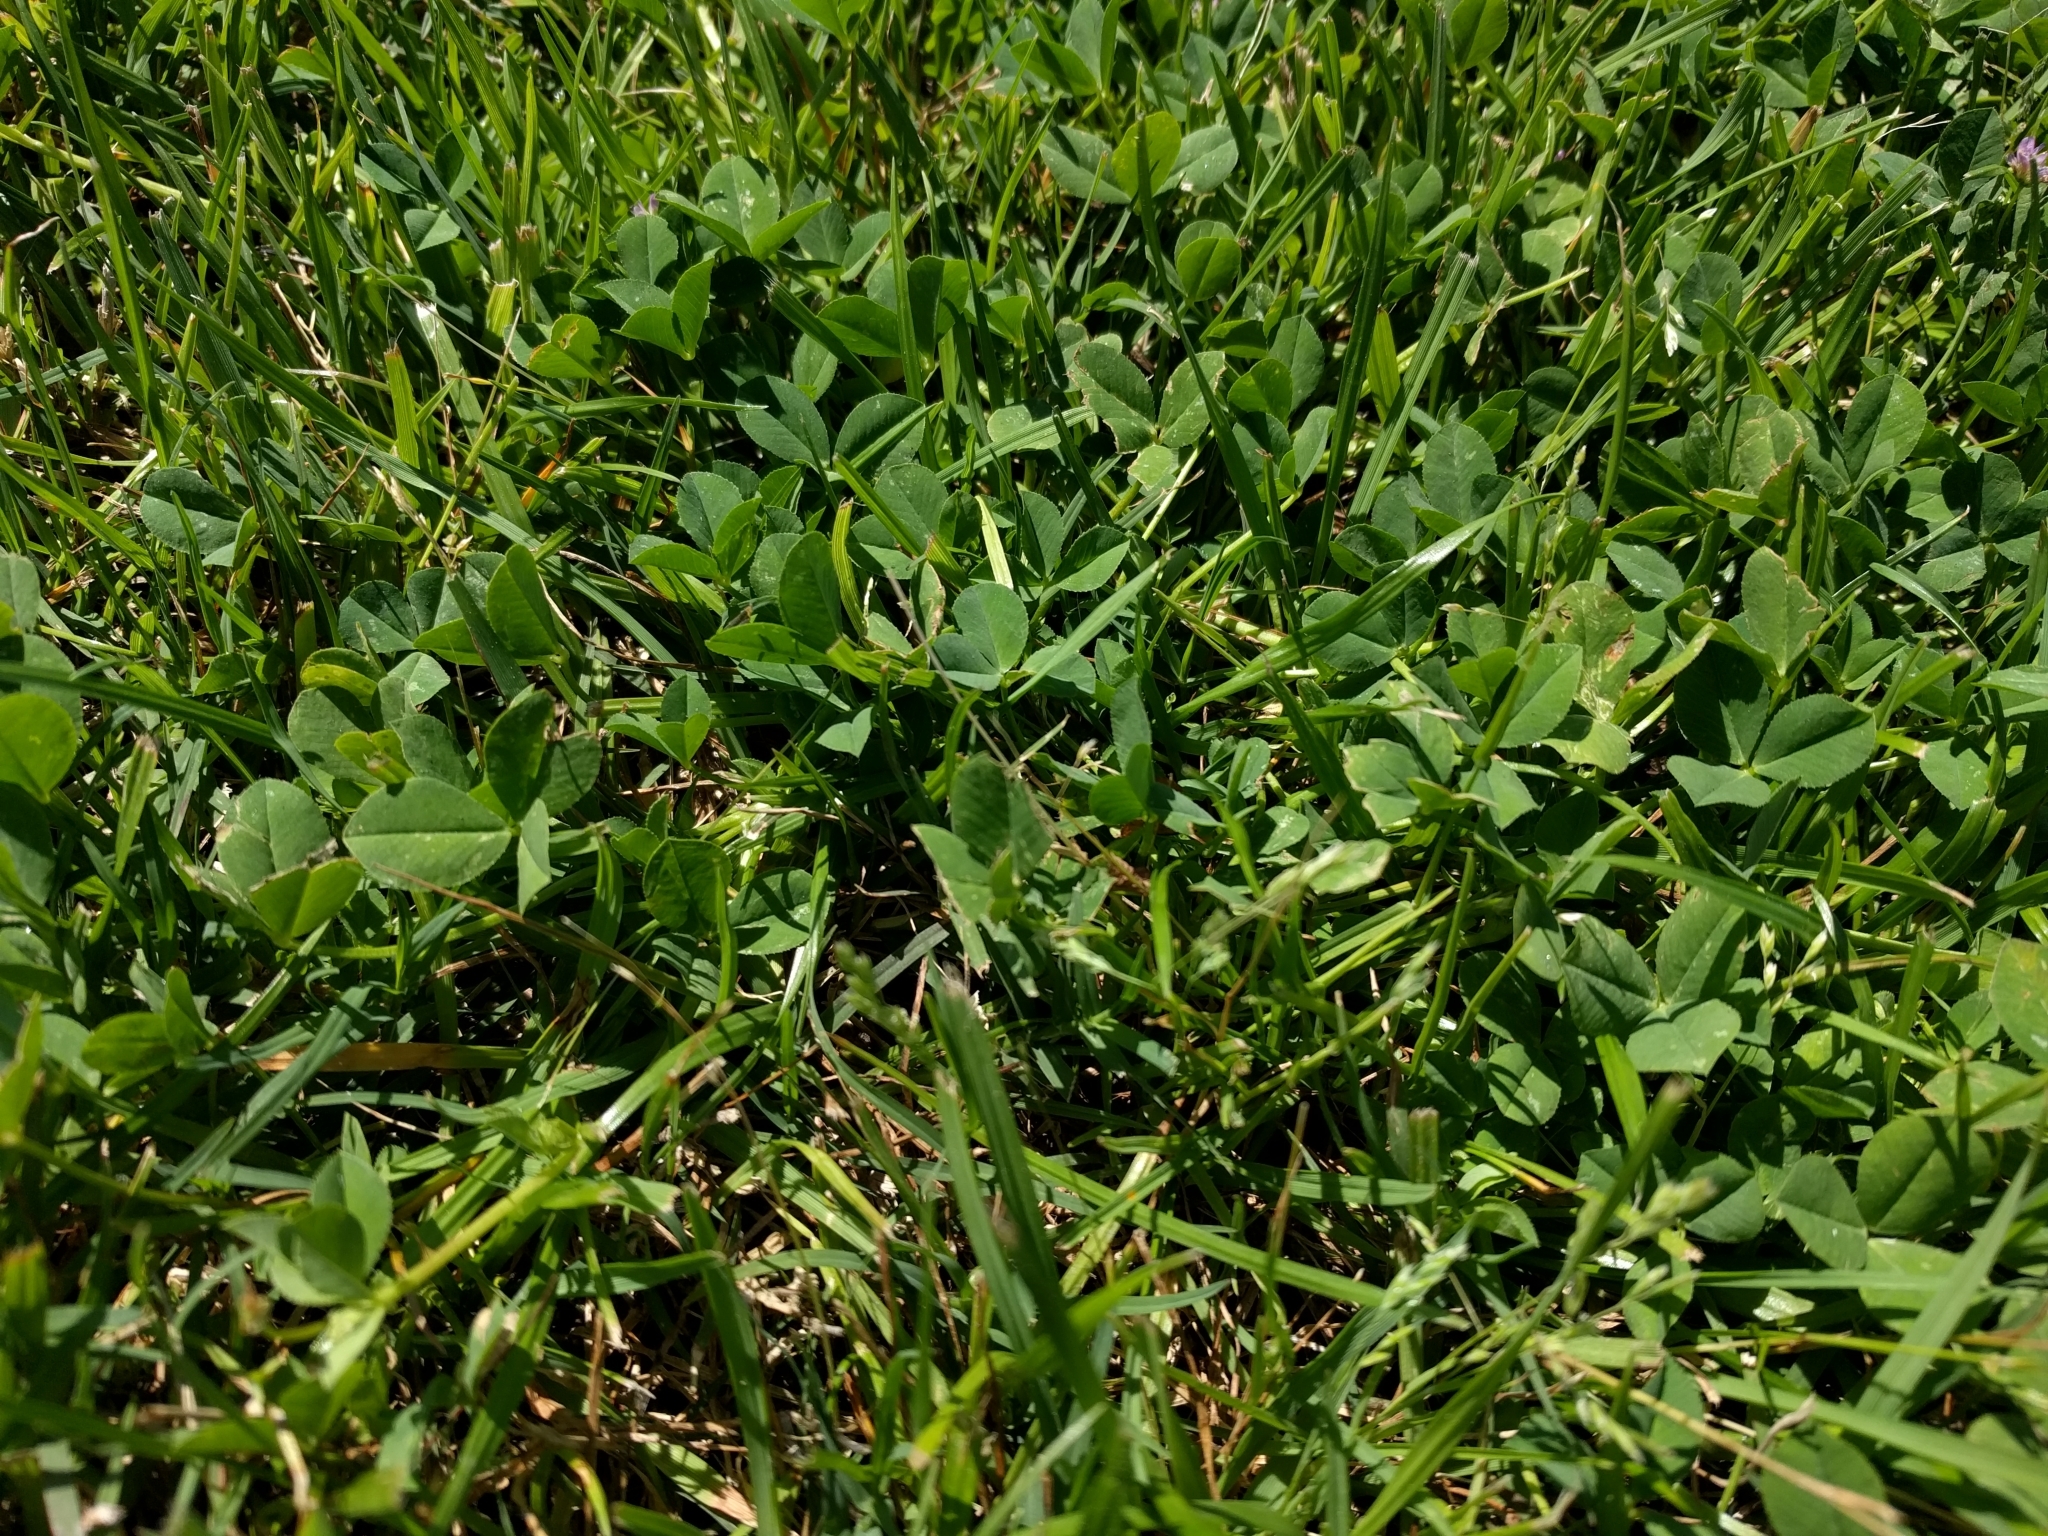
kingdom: Plantae
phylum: Tracheophyta
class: Magnoliopsida
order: Fabales
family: Fabaceae
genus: Trifolium
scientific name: Trifolium pratense
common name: Red clover
